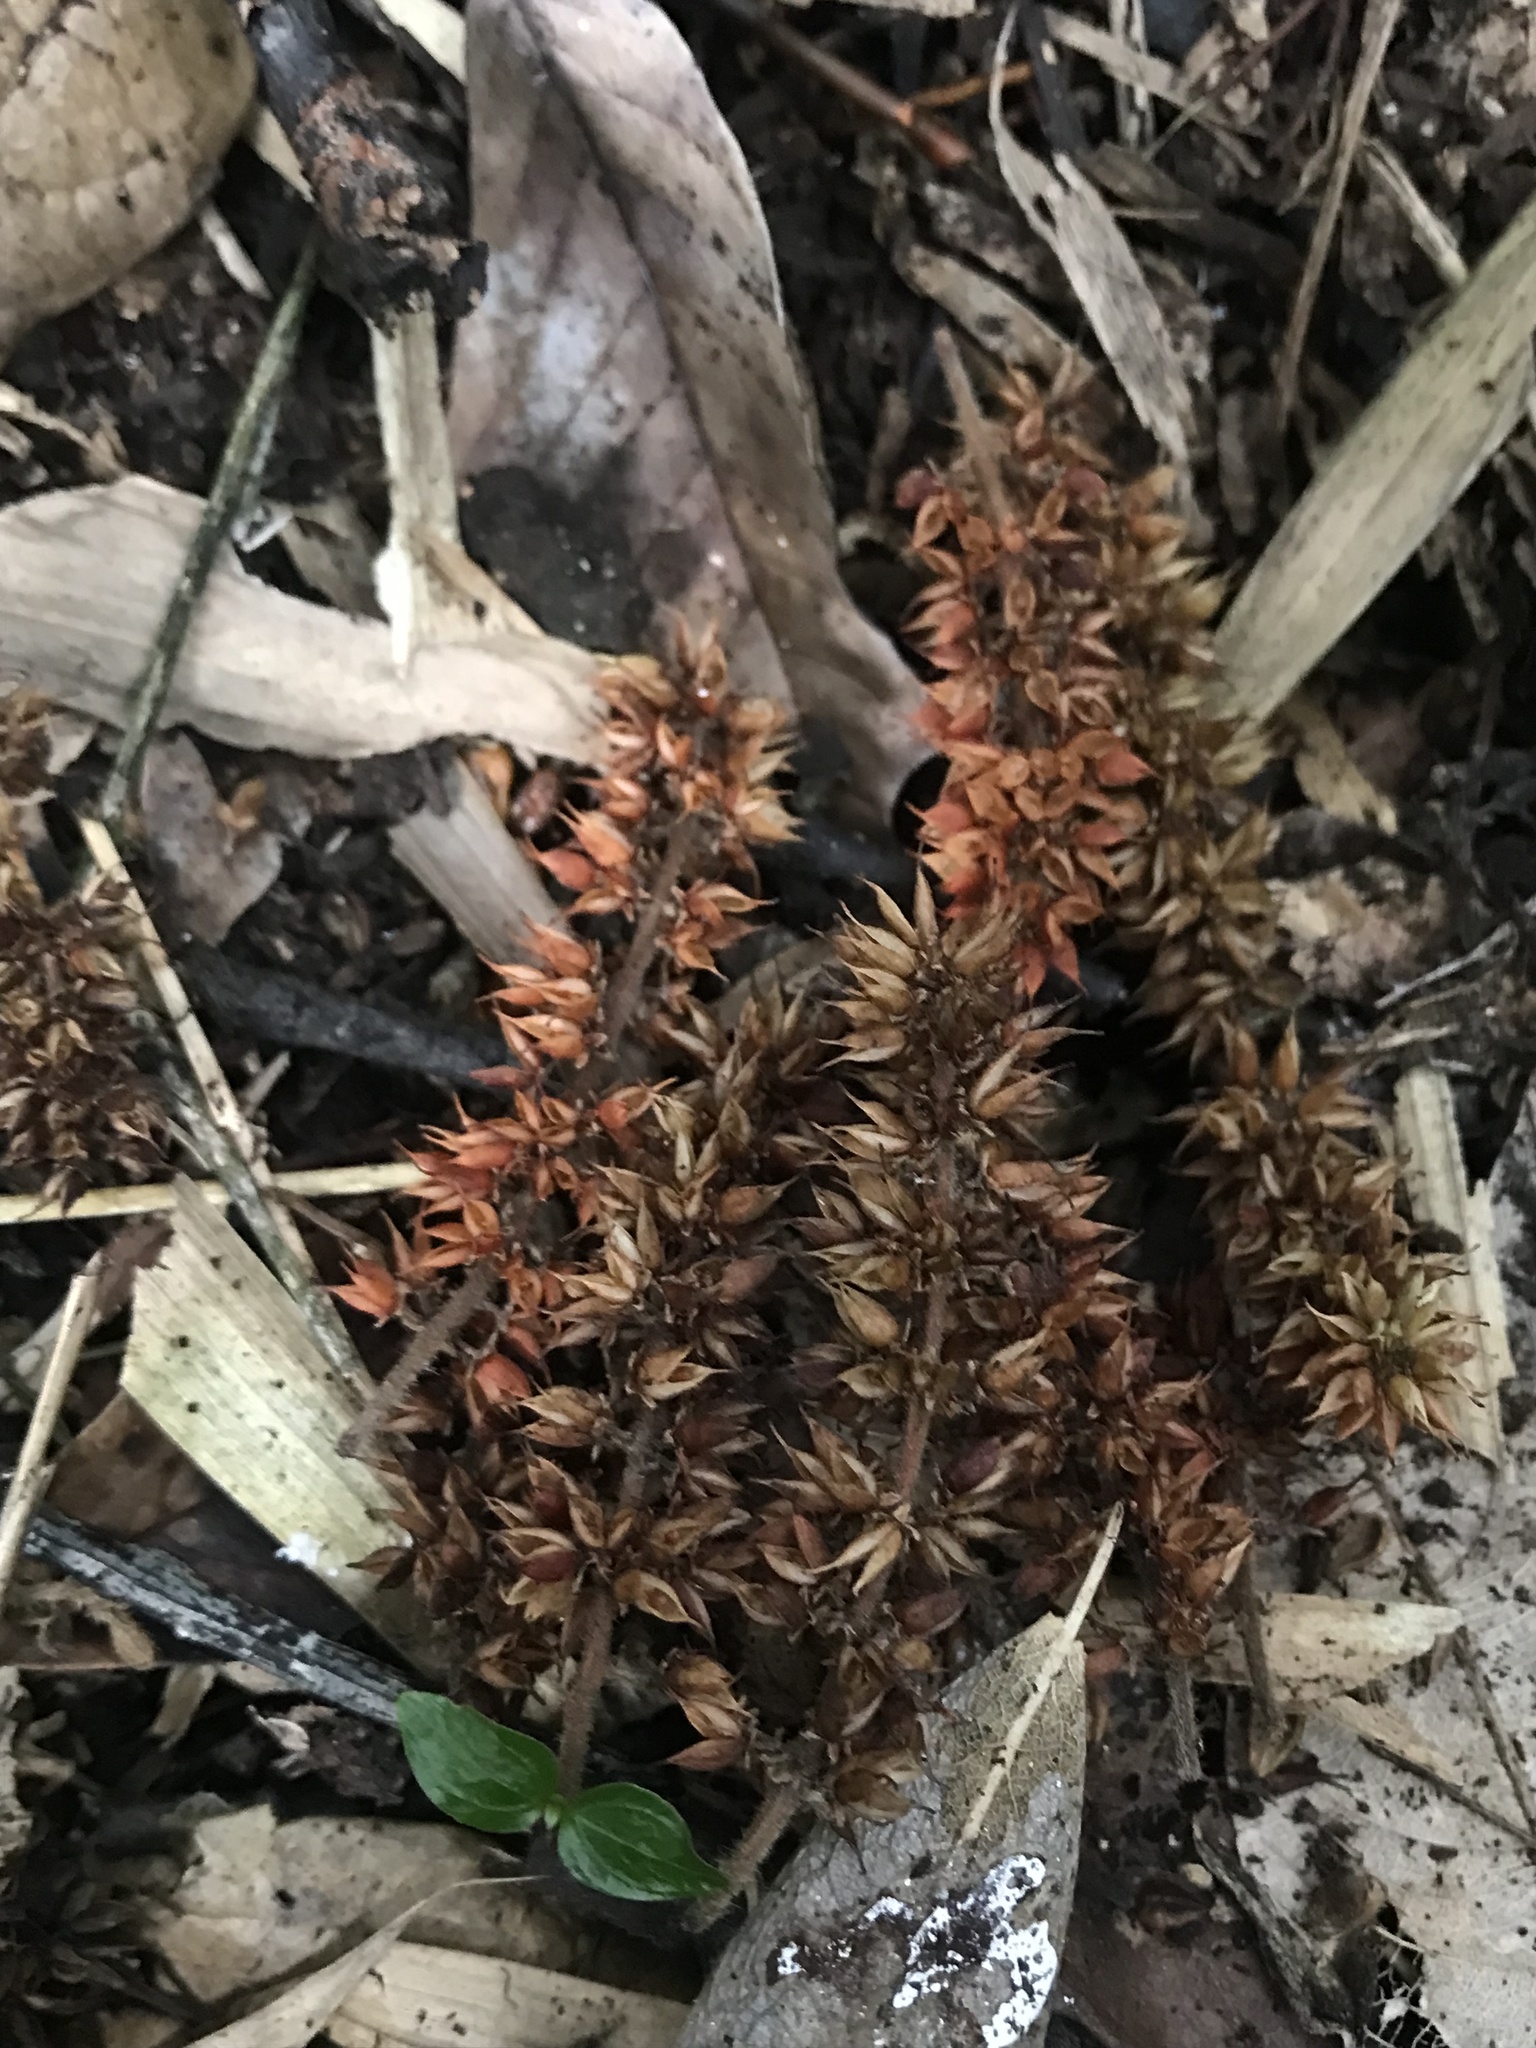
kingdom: Plantae
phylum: Tracheophyta
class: Magnoliopsida
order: Oxalidales
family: Cunoniaceae
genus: Weinmannia
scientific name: Weinmannia tomentosa
